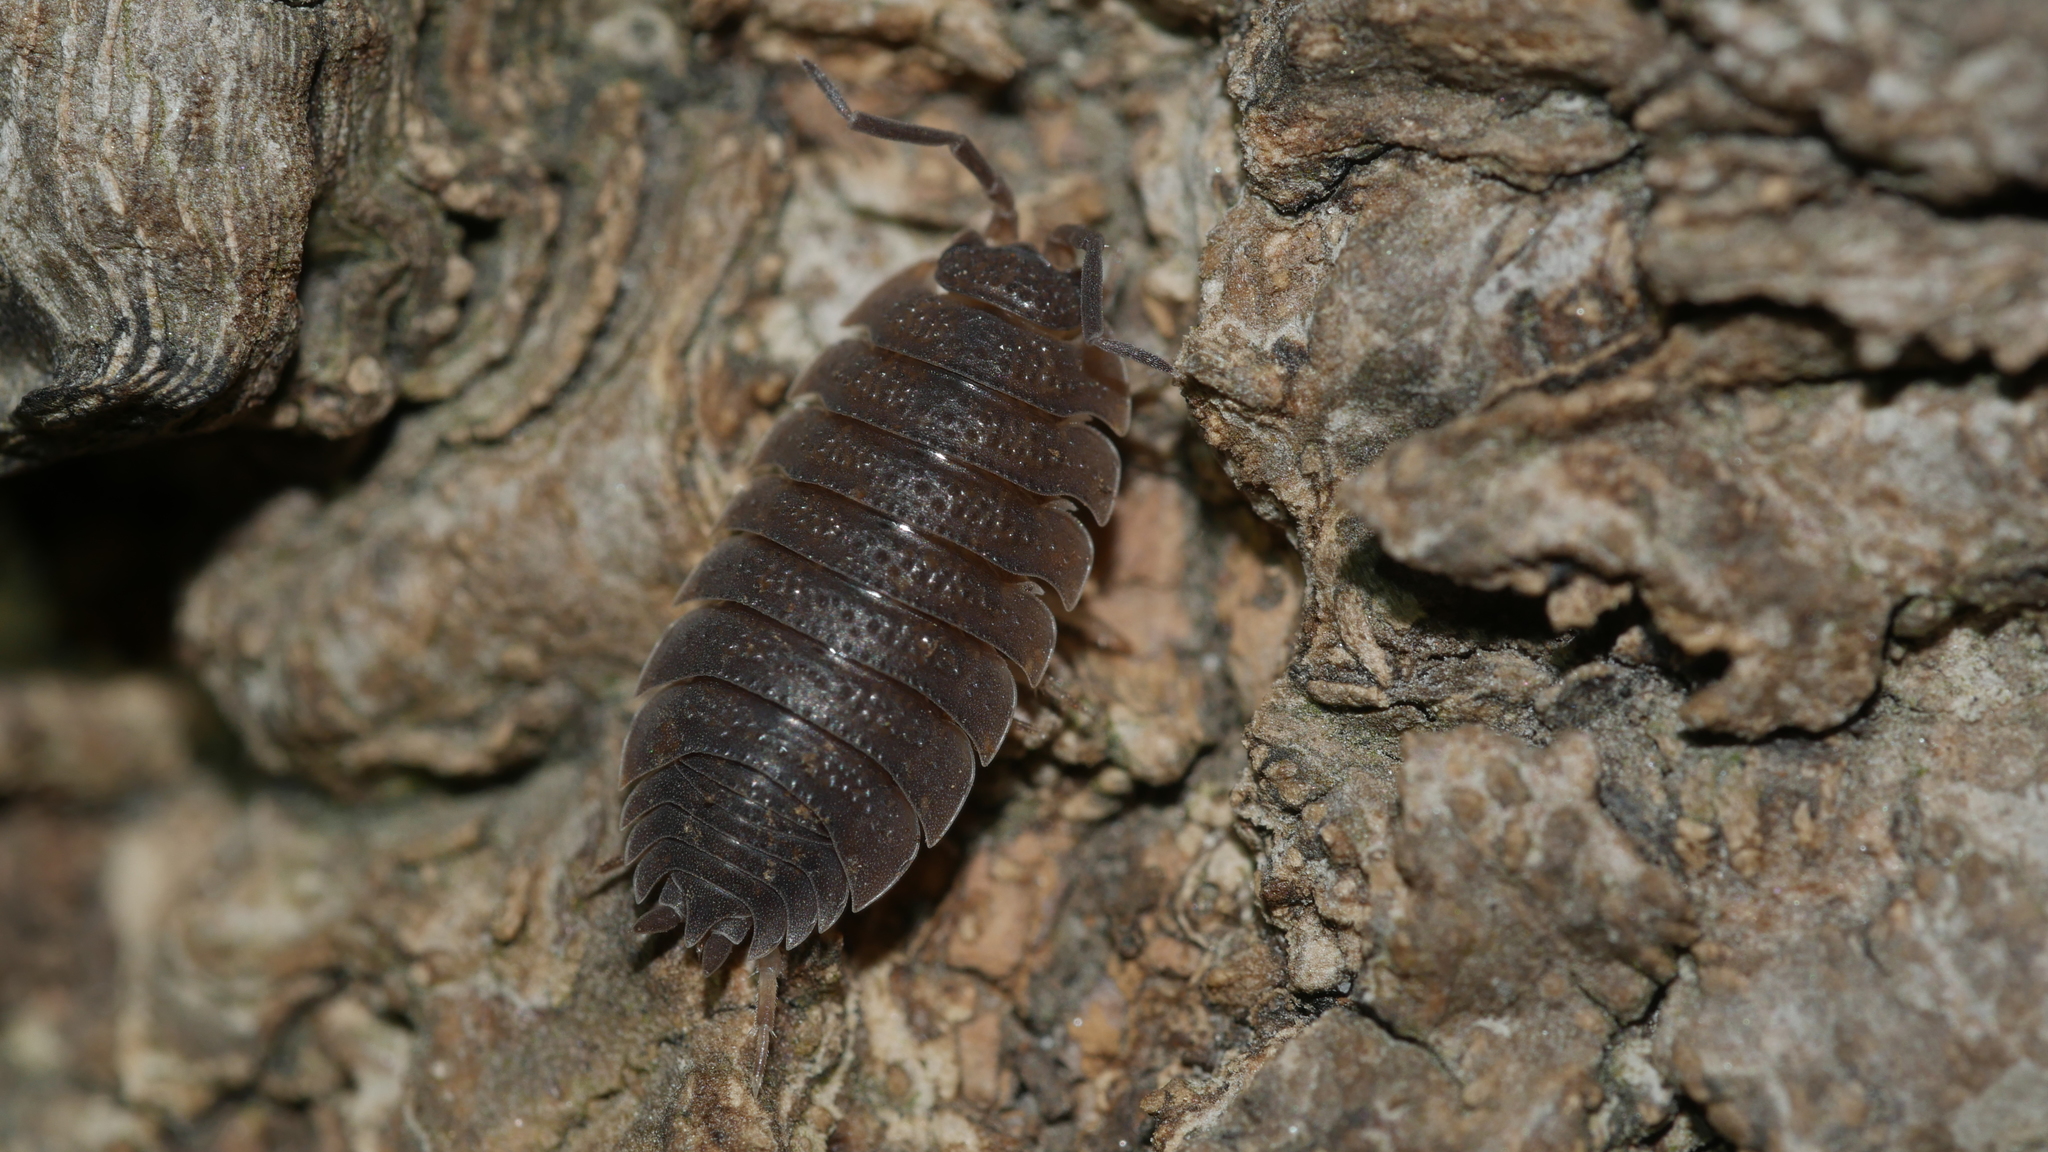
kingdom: Animalia
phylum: Arthropoda
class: Malacostraca
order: Isopoda
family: Porcellionidae
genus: Porcellio
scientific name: Porcellio scaber
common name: Common rough woodlouse
